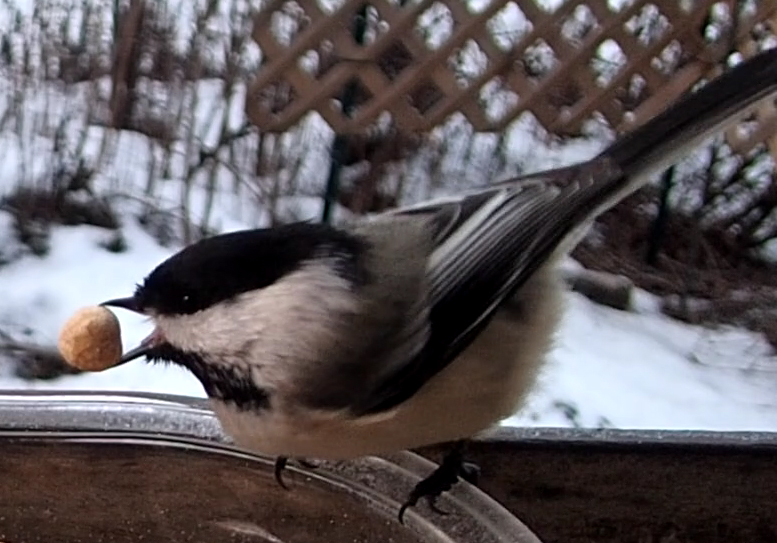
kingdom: Animalia
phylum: Chordata
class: Aves
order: Passeriformes
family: Paridae
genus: Poecile
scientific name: Poecile atricapillus
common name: Black-capped chickadee
